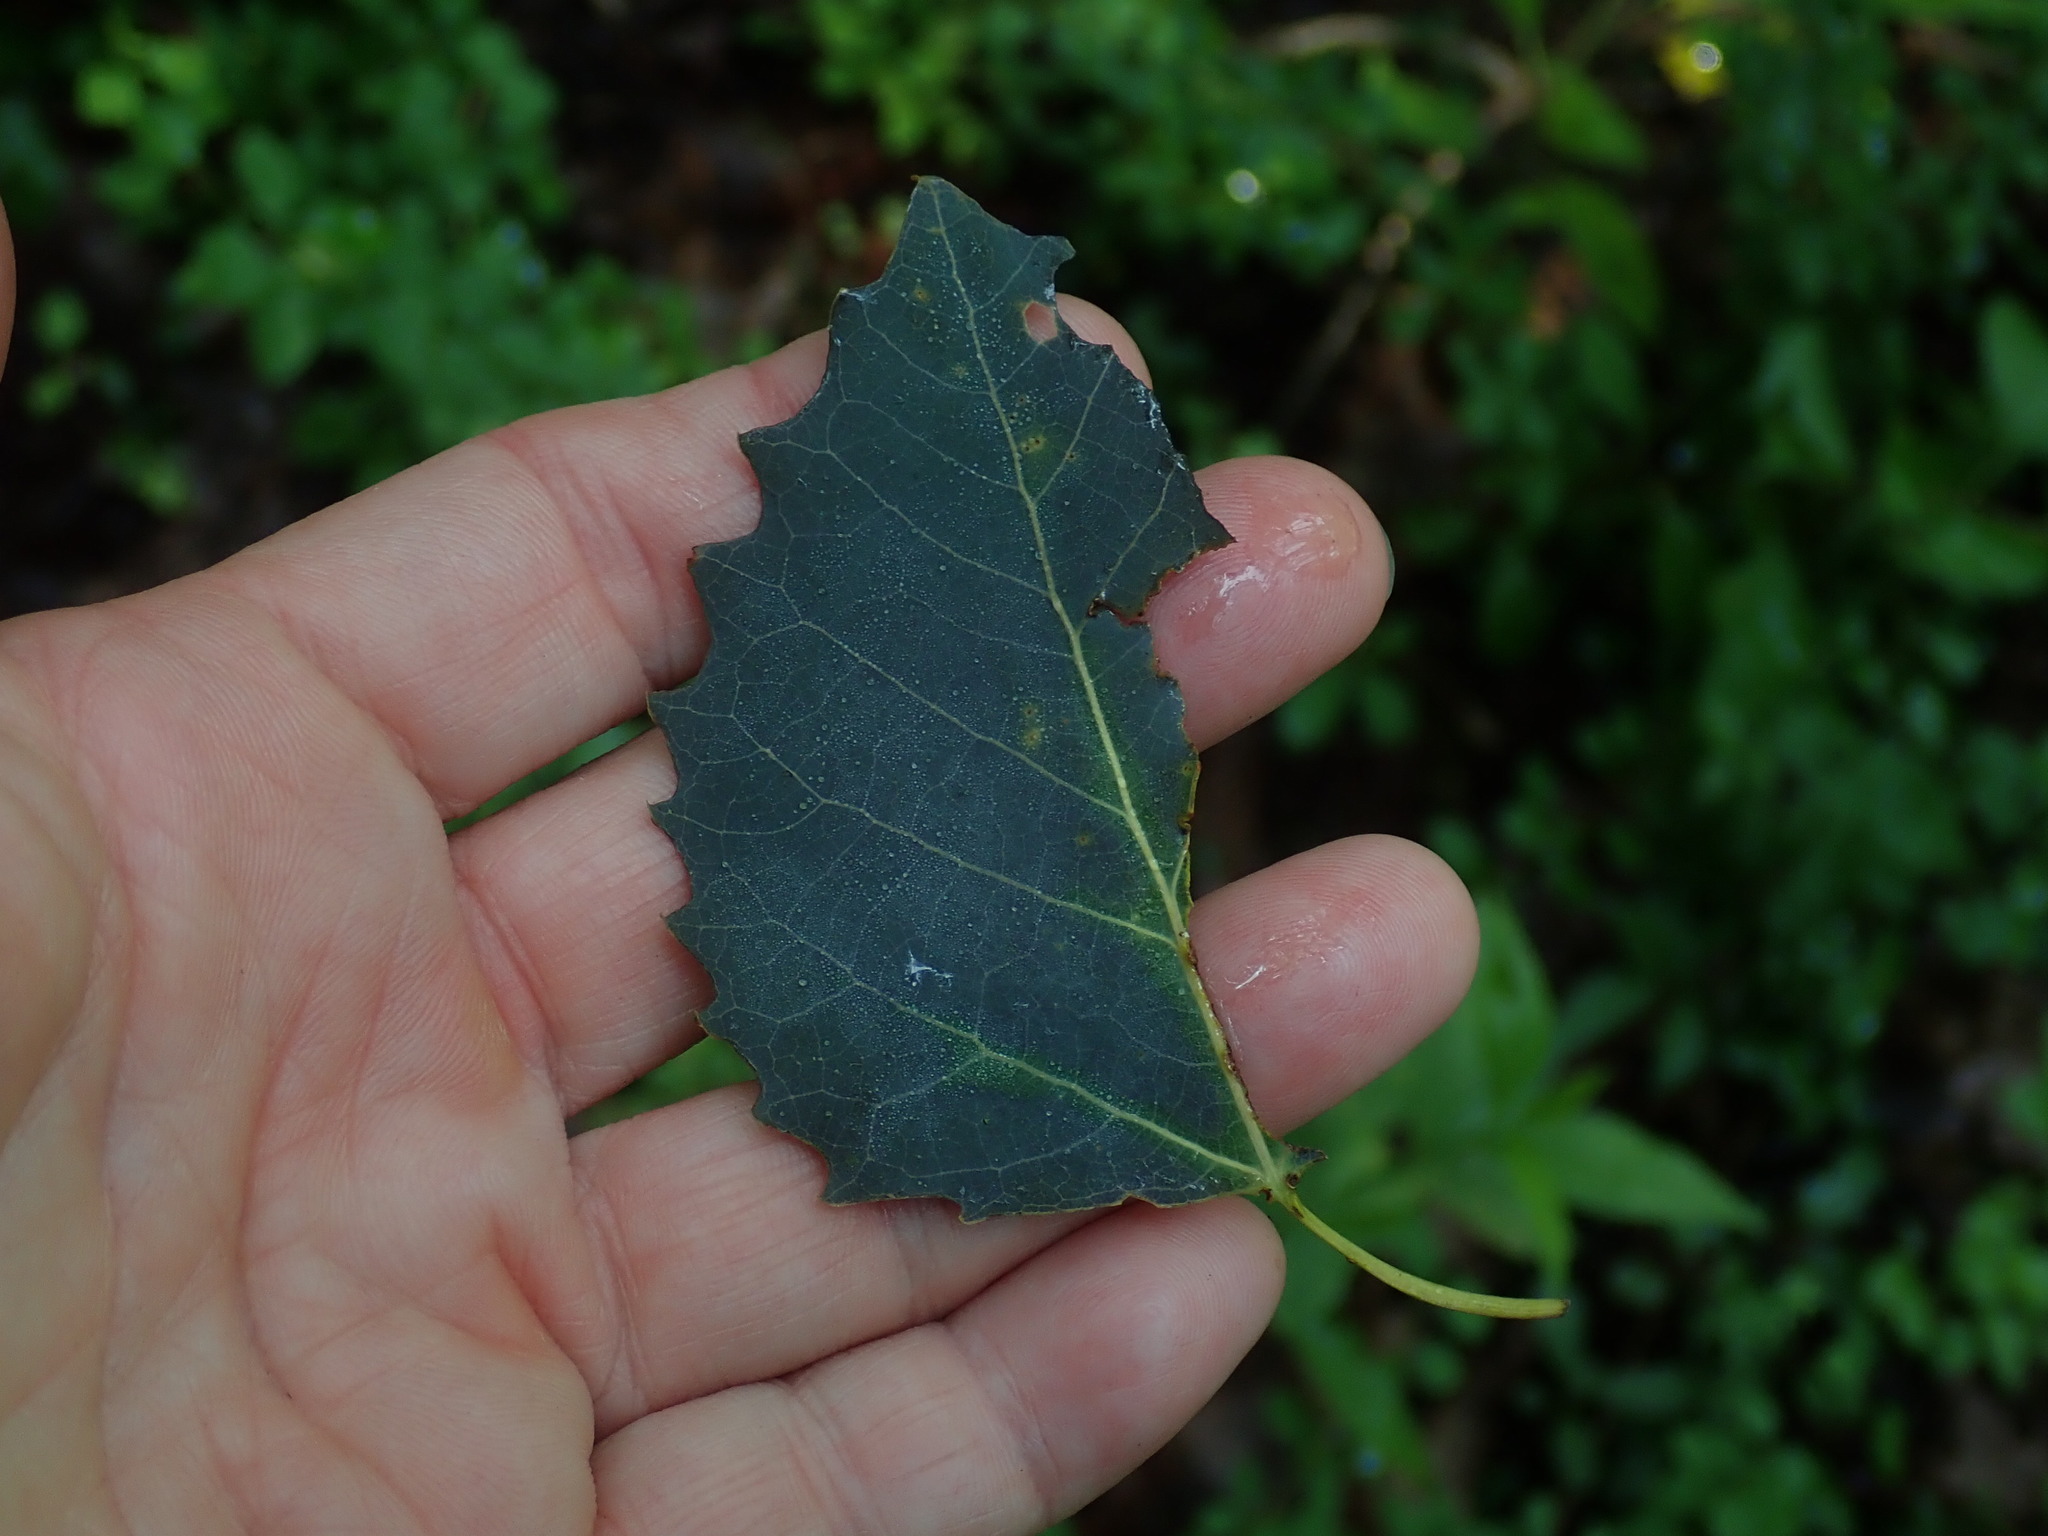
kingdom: Plantae
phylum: Tracheophyta
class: Magnoliopsida
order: Malpighiales
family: Salicaceae
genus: Populus
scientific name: Populus grandidentata
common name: Bigtooth aspen
